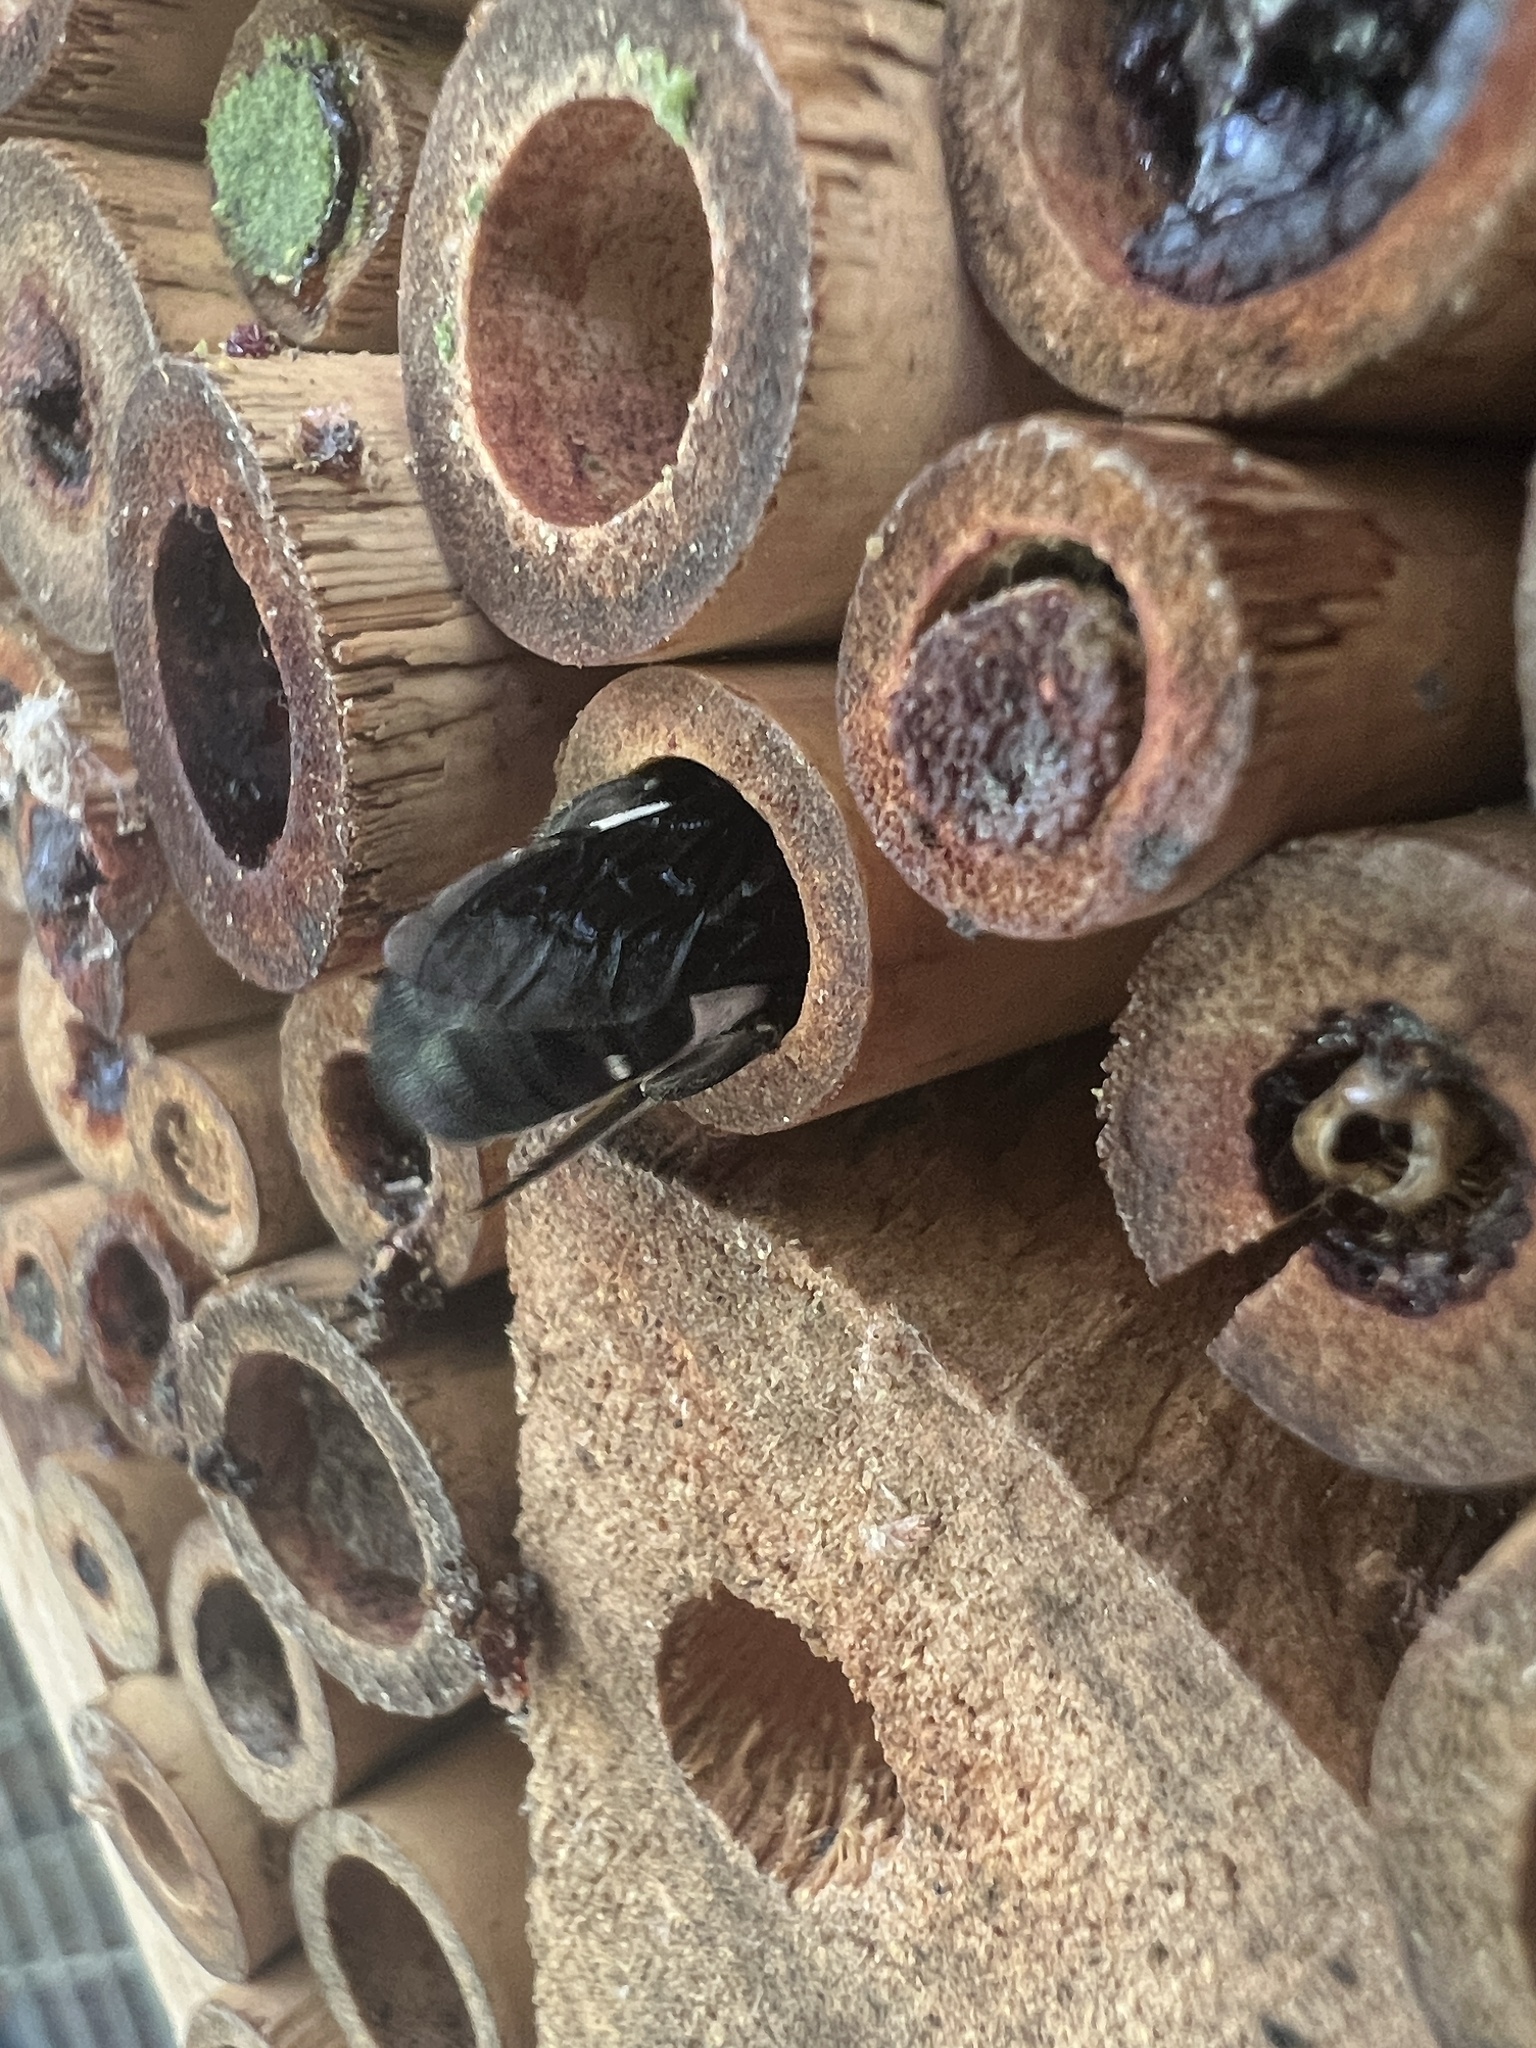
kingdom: Animalia
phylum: Arthropoda
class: Insecta
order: Hymenoptera
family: Megachilidae
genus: Megachile
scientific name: Megachile monstrosa
